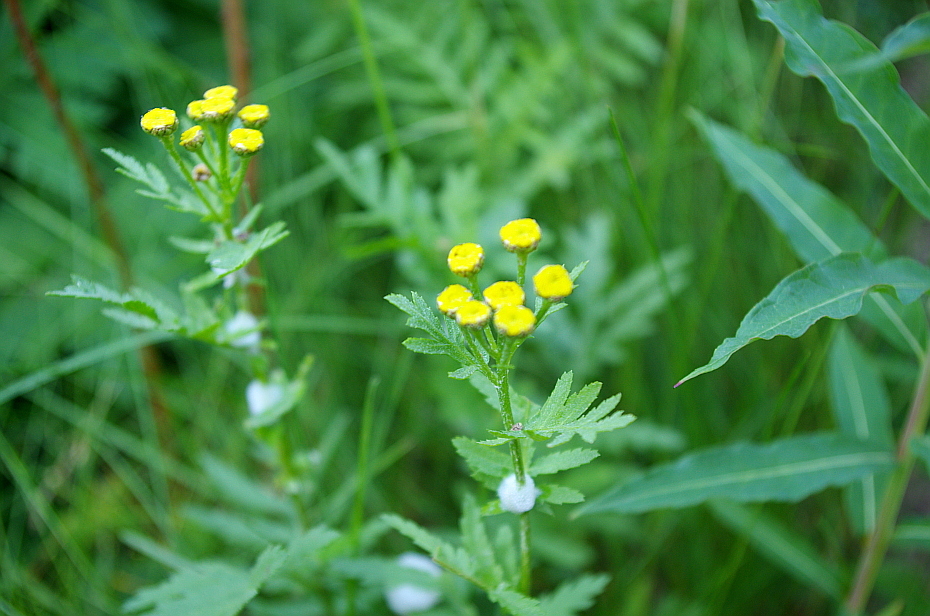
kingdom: Plantae
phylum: Tracheophyta
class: Magnoliopsida
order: Asterales
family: Asteraceae
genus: Tanacetum
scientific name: Tanacetum vulgare
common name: Common tansy
